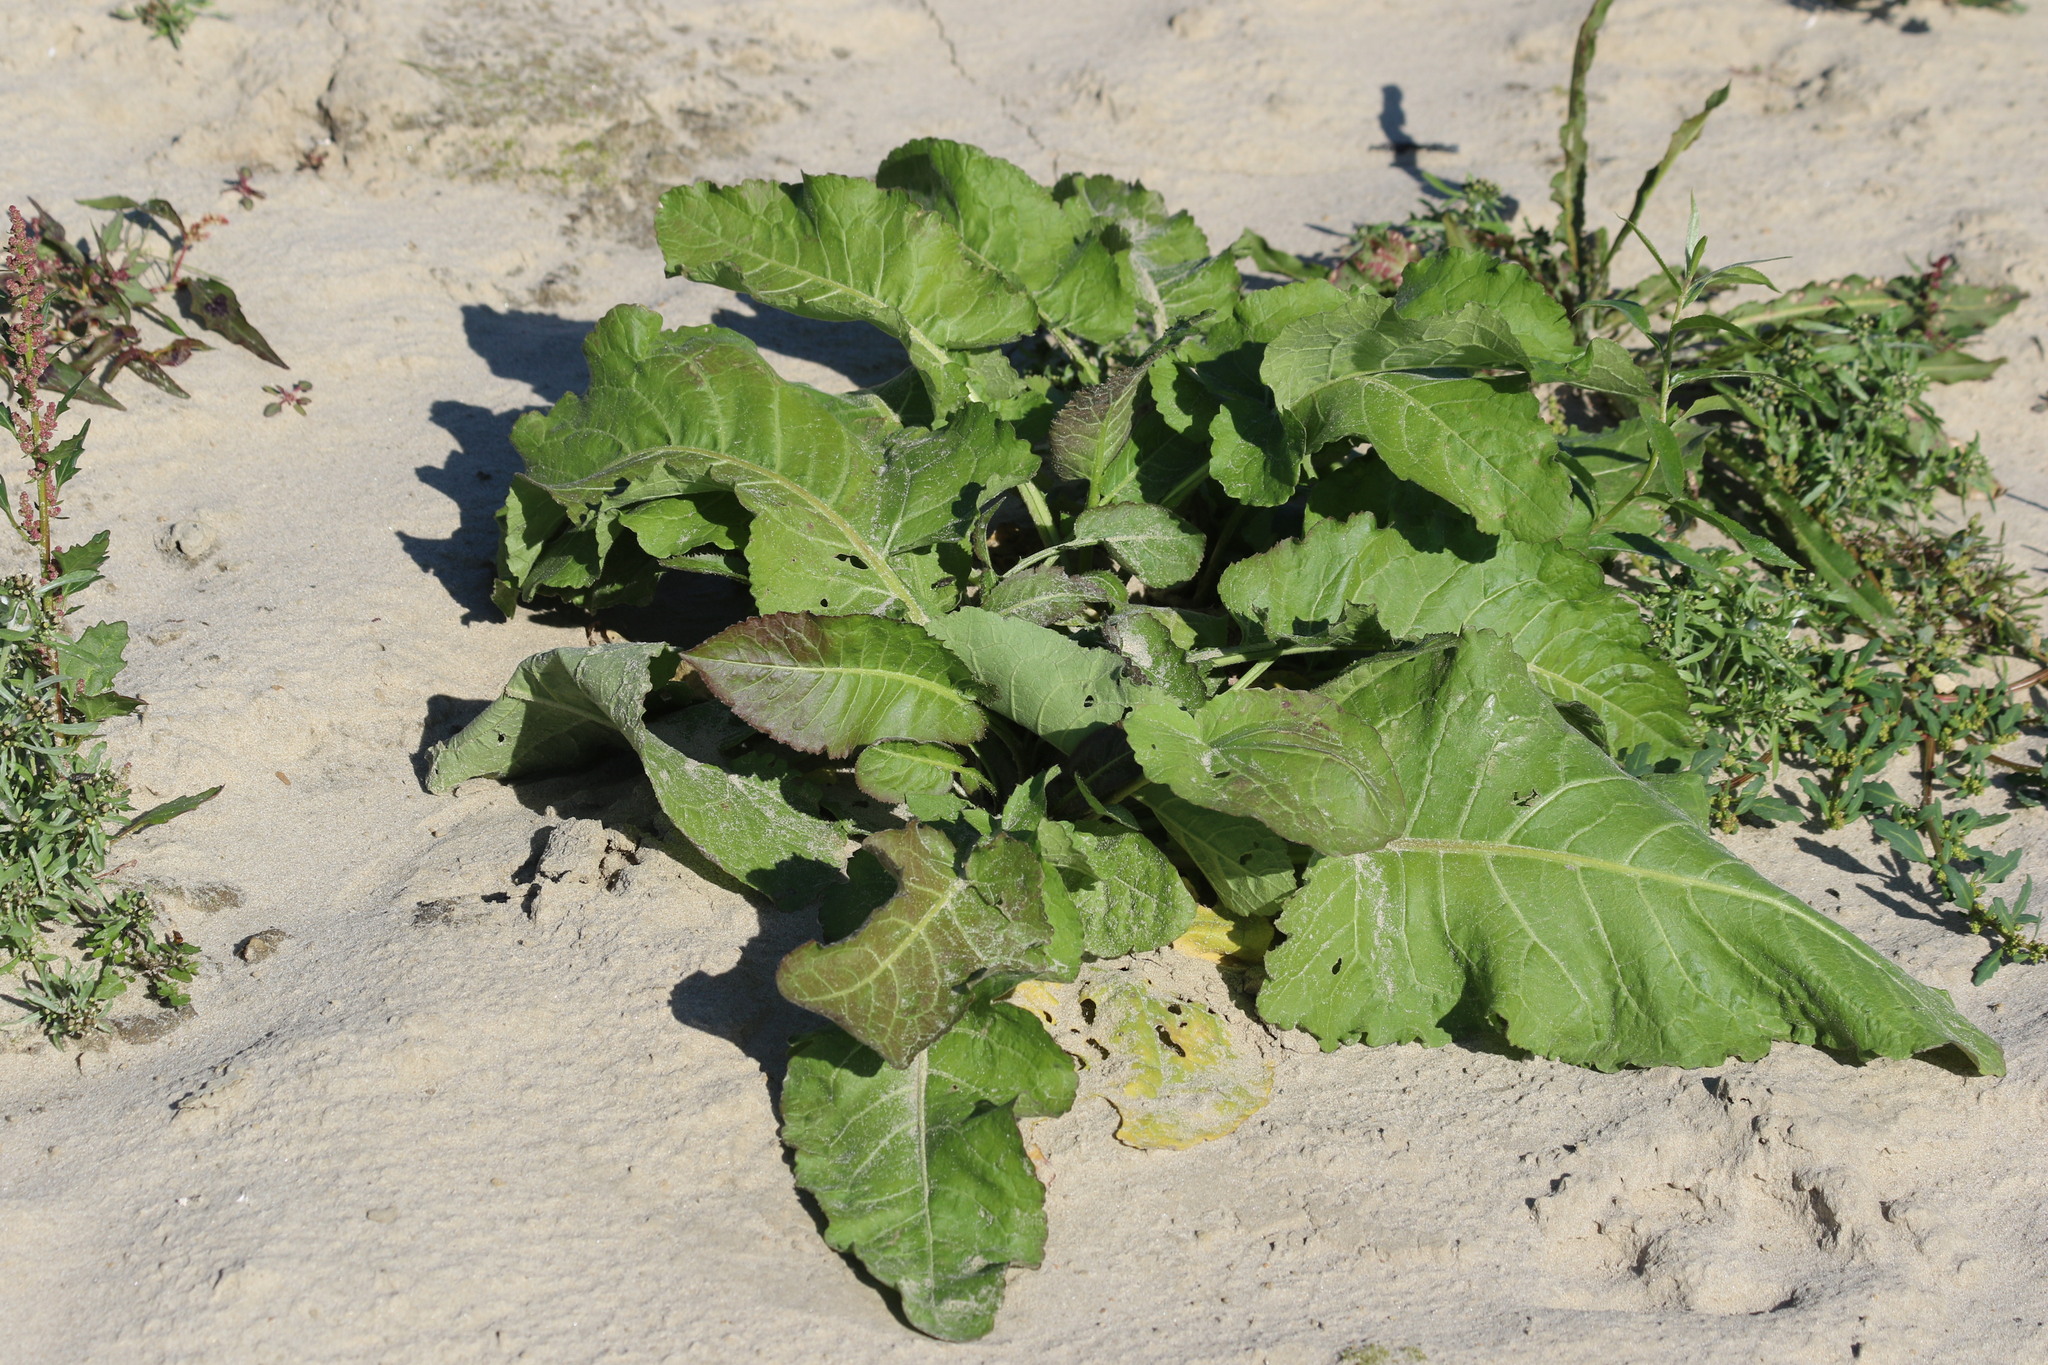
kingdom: Plantae
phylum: Tracheophyta
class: Magnoliopsida
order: Brassicales
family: Brassicaceae
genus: Rorippa
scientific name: Rorippa amphibia
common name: Great yellow-cress
